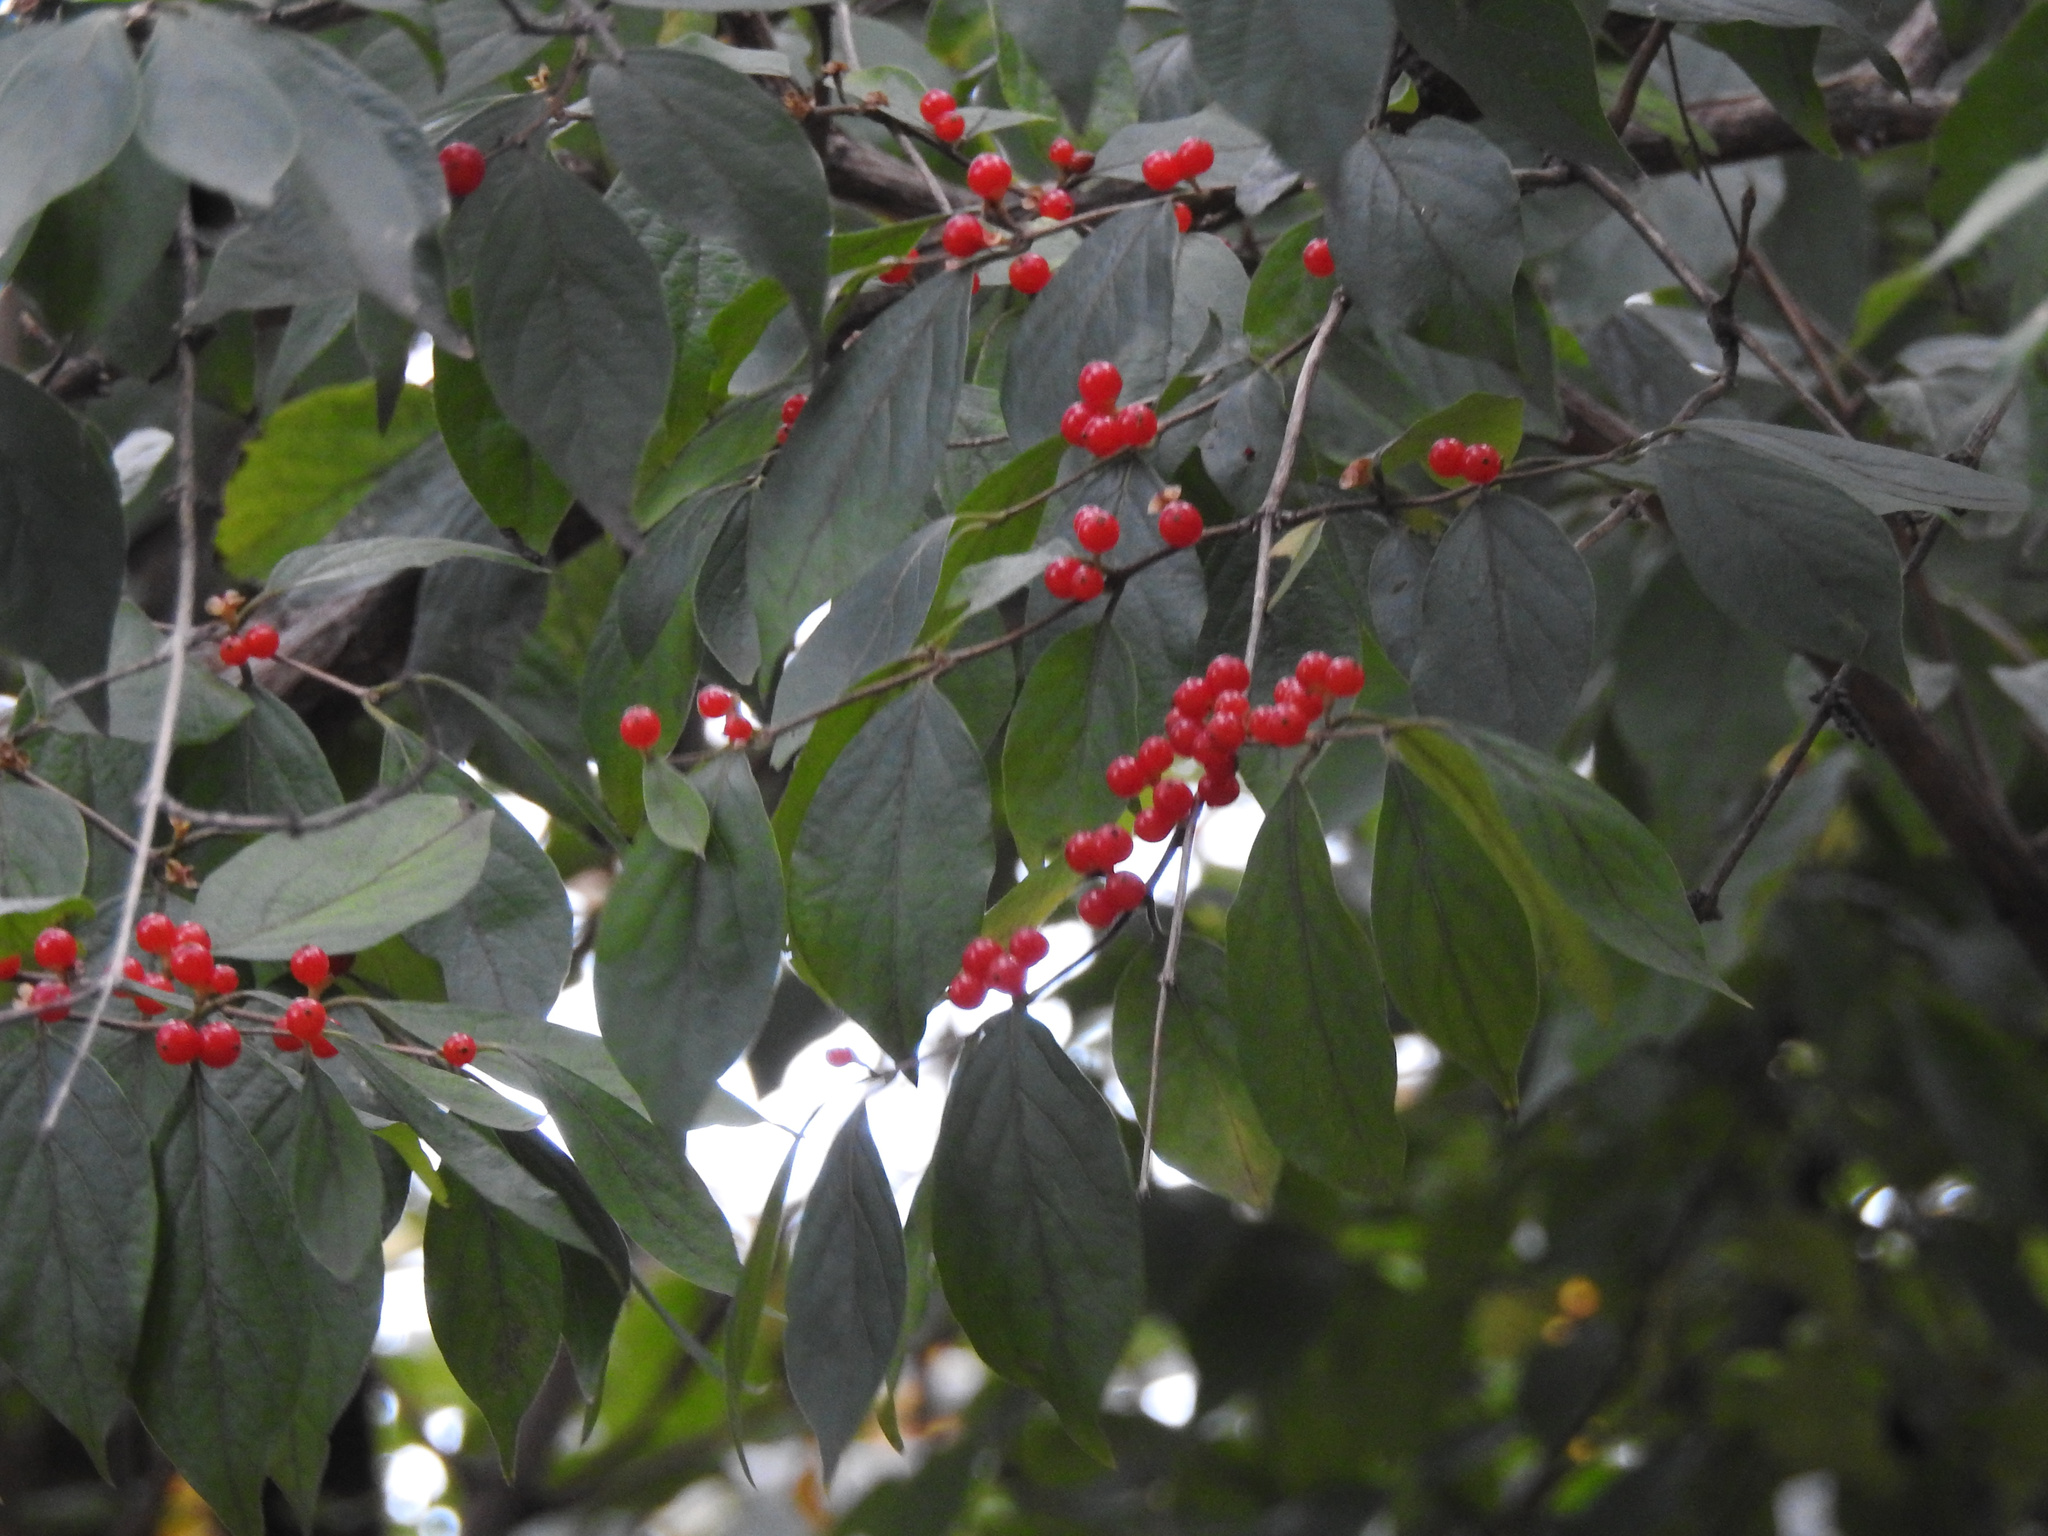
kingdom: Plantae
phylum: Tracheophyta
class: Magnoliopsida
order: Dipsacales
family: Caprifoliaceae
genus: Lonicera
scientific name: Lonicera maackii
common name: Amur honeysuckle
